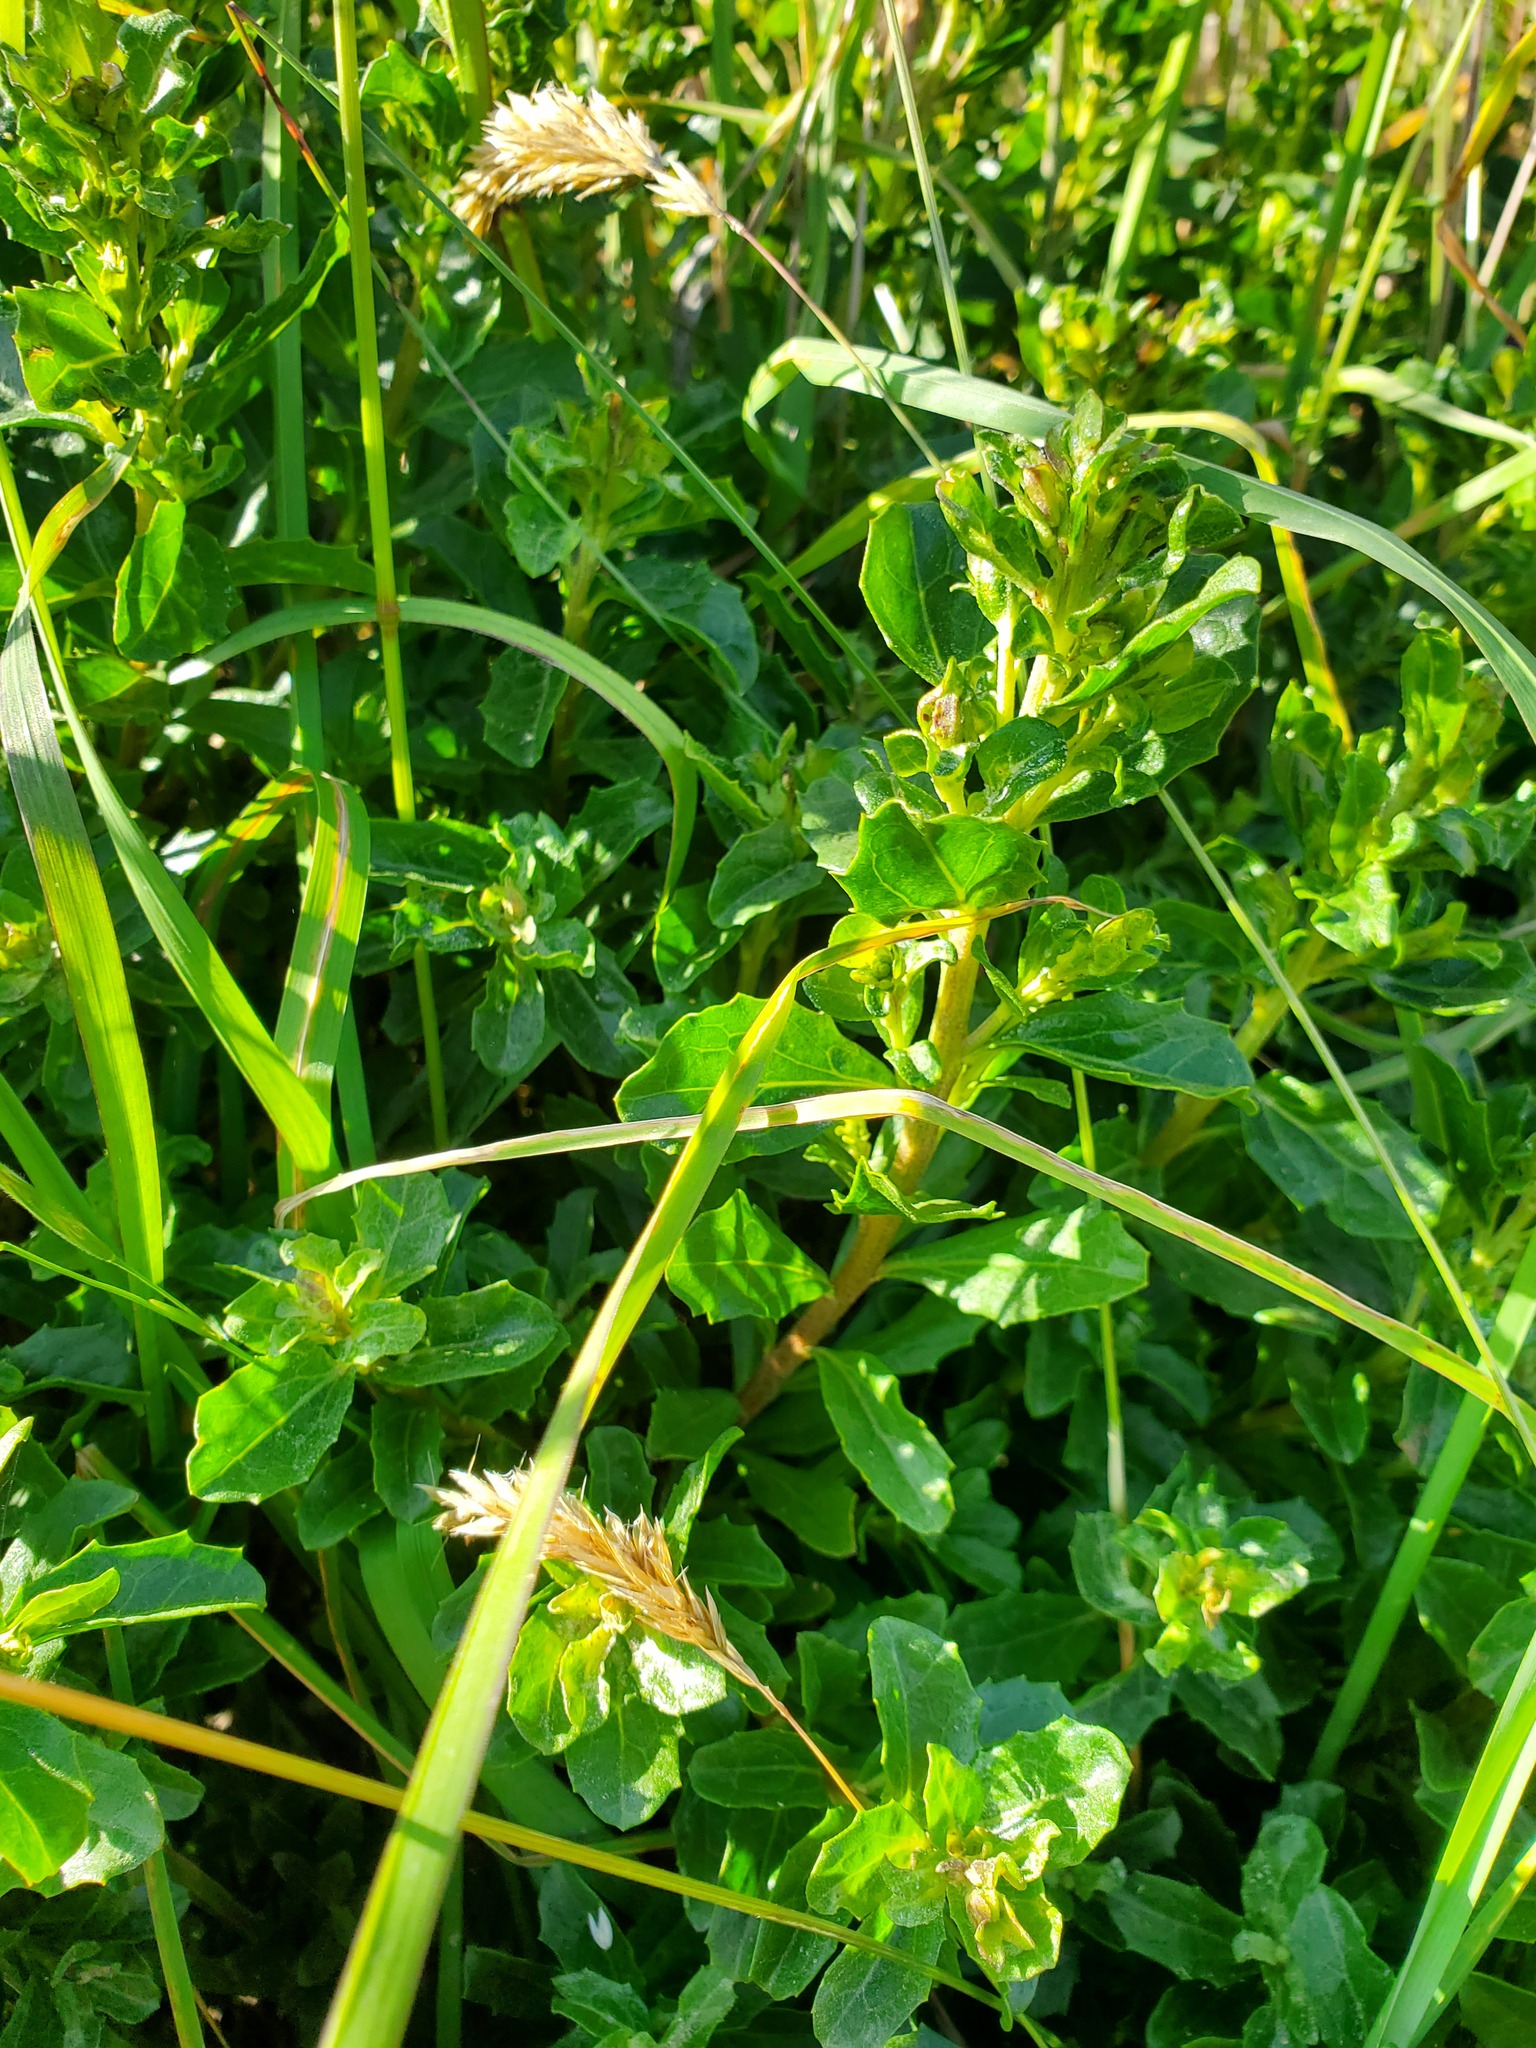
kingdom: Plantae
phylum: Tracheophyta
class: Magnoliopsida
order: Asterales
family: Asteraceae
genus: Baccharis
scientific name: Baccharis pilularis
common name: Coyotebrush
